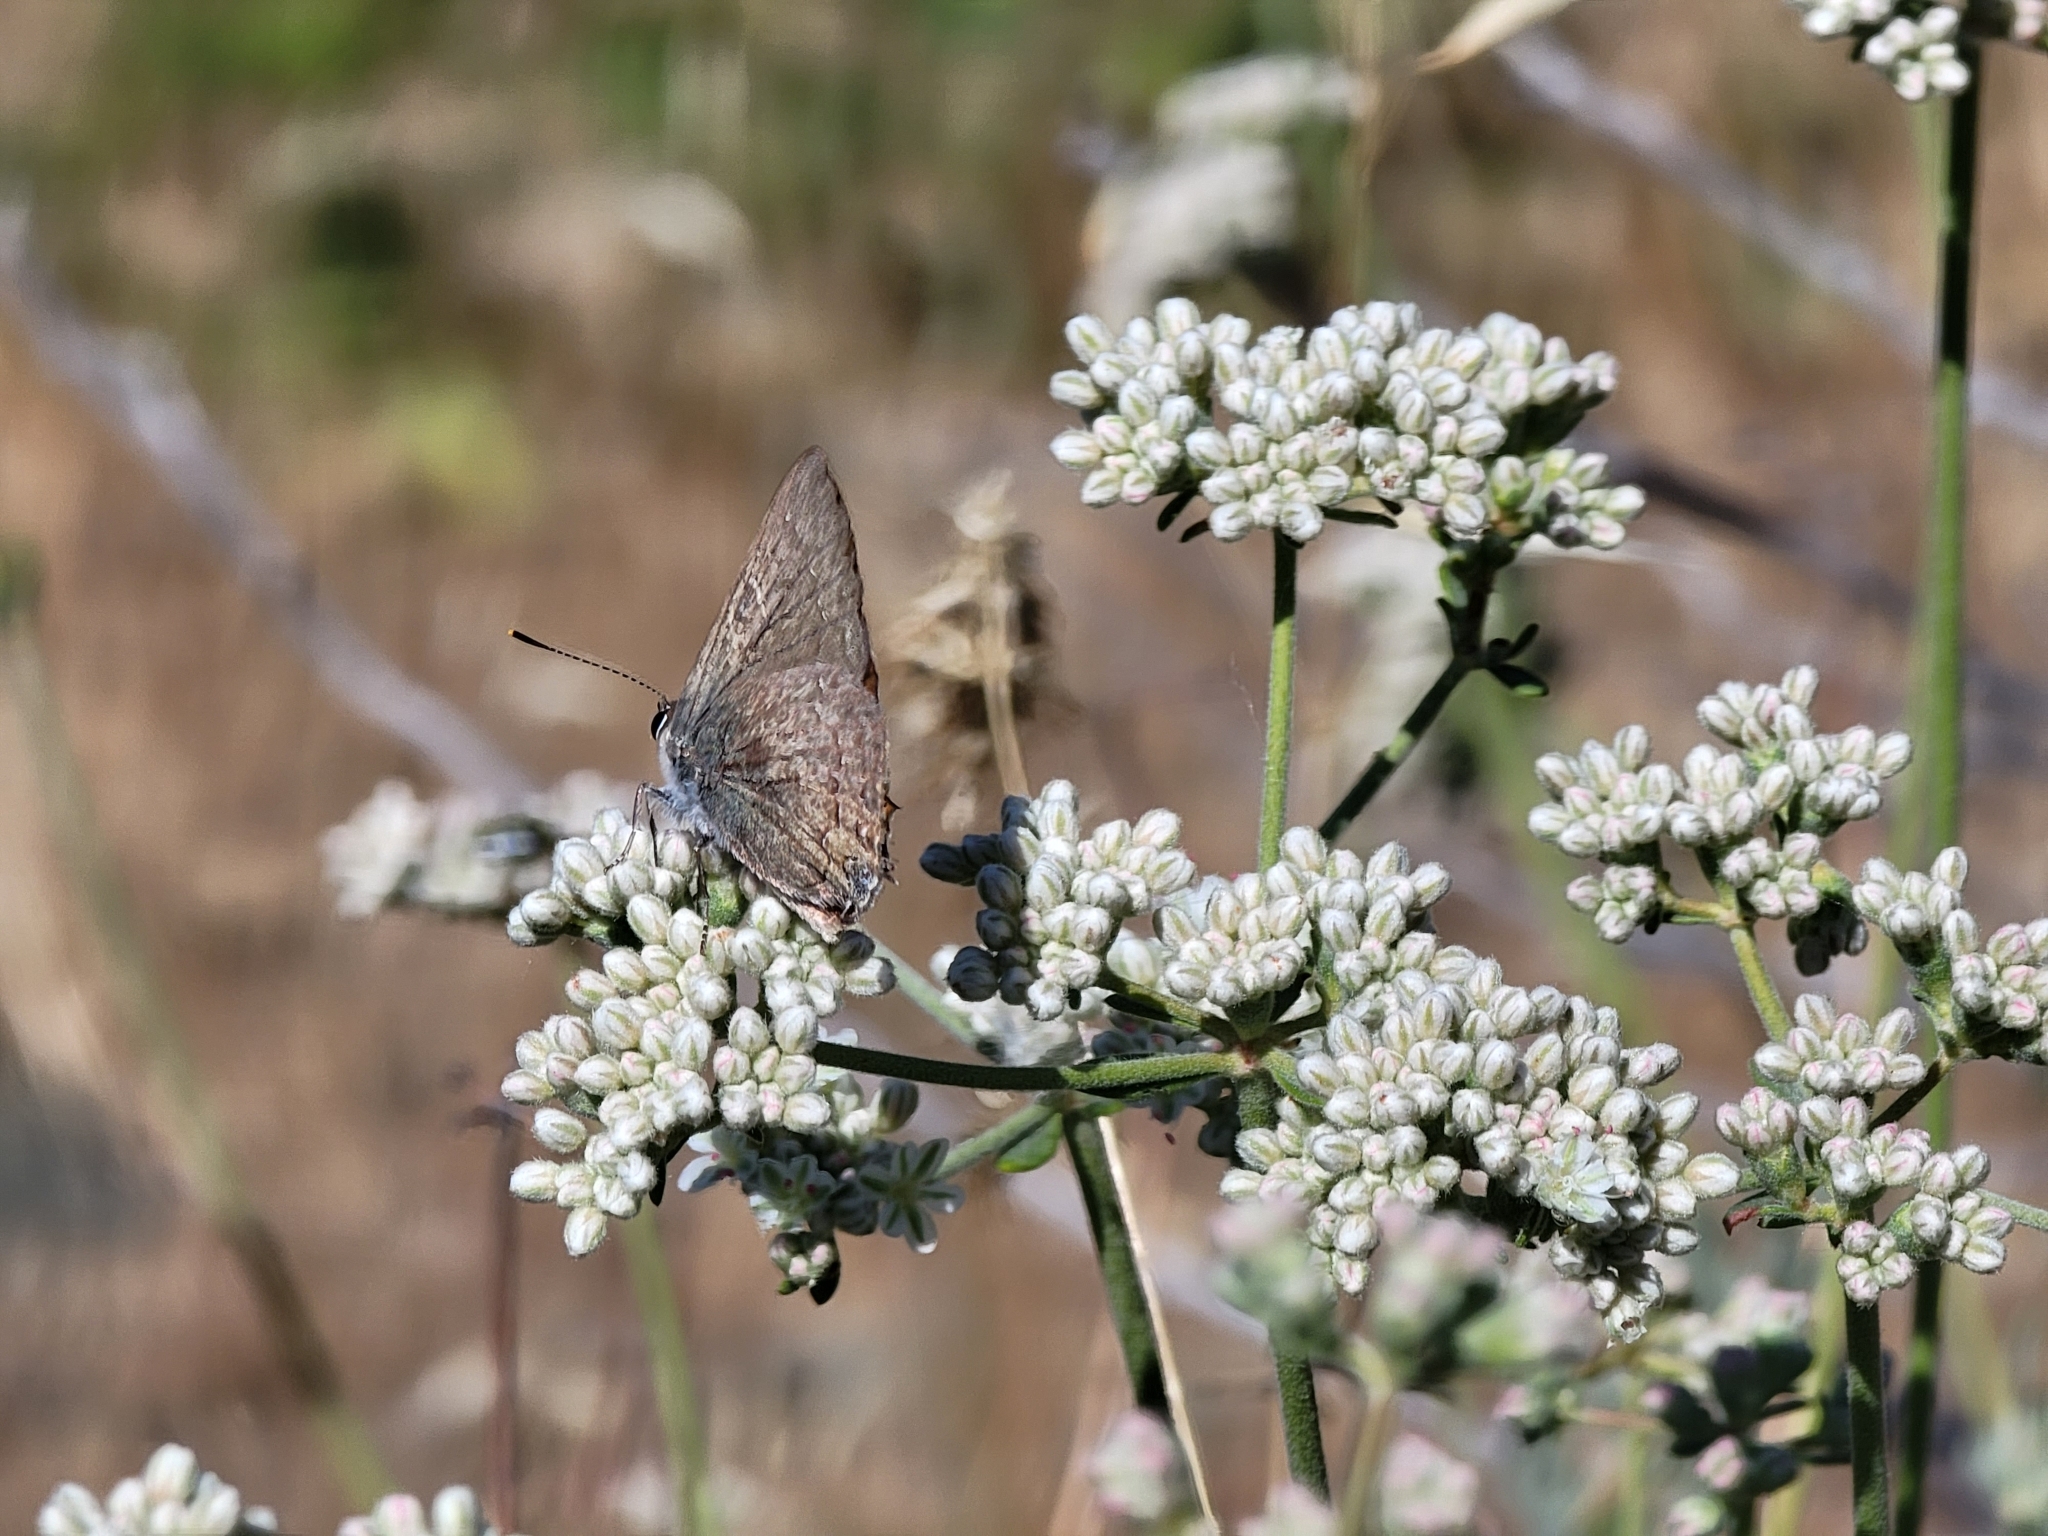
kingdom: Animalia
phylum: Arthropoda
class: Insecta
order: Lepidoptera
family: Lycaenidae
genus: Strymon
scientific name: Strymon saepium
